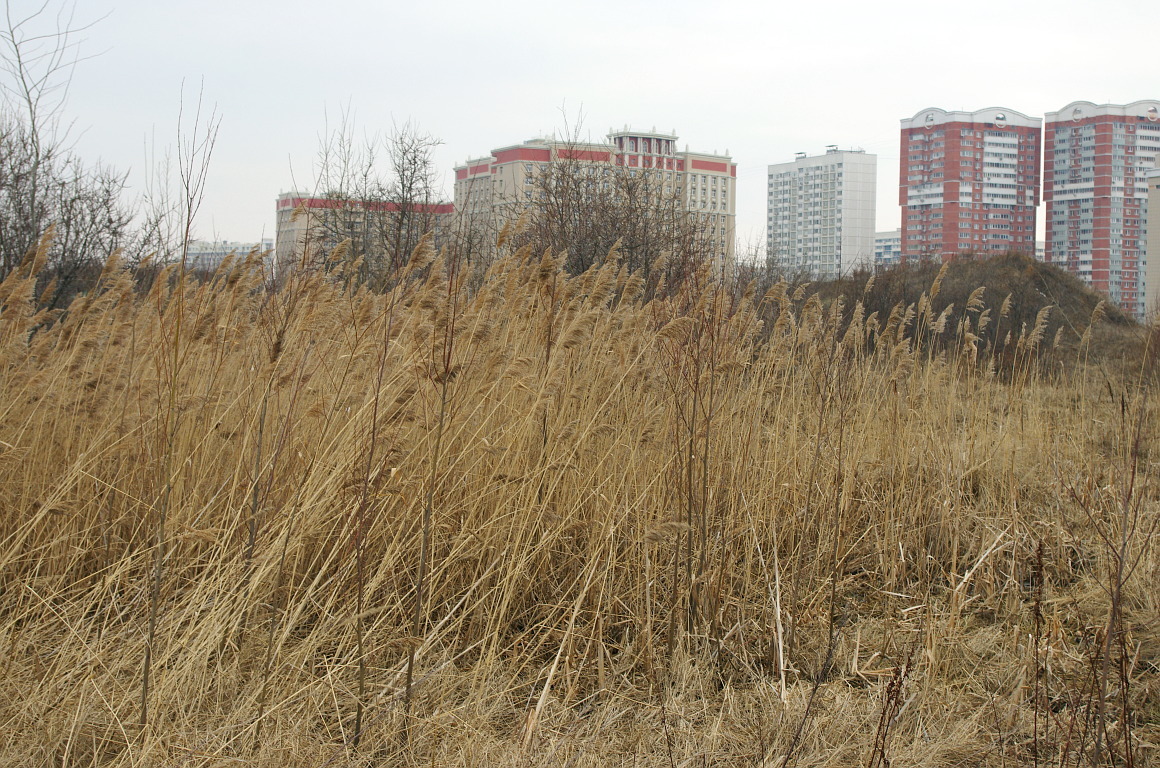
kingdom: Plantae
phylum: Tracheophyta
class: Liliopsida
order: Poales
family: Poaceae
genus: Phragmites
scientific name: Phragmites australis
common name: Common reed
